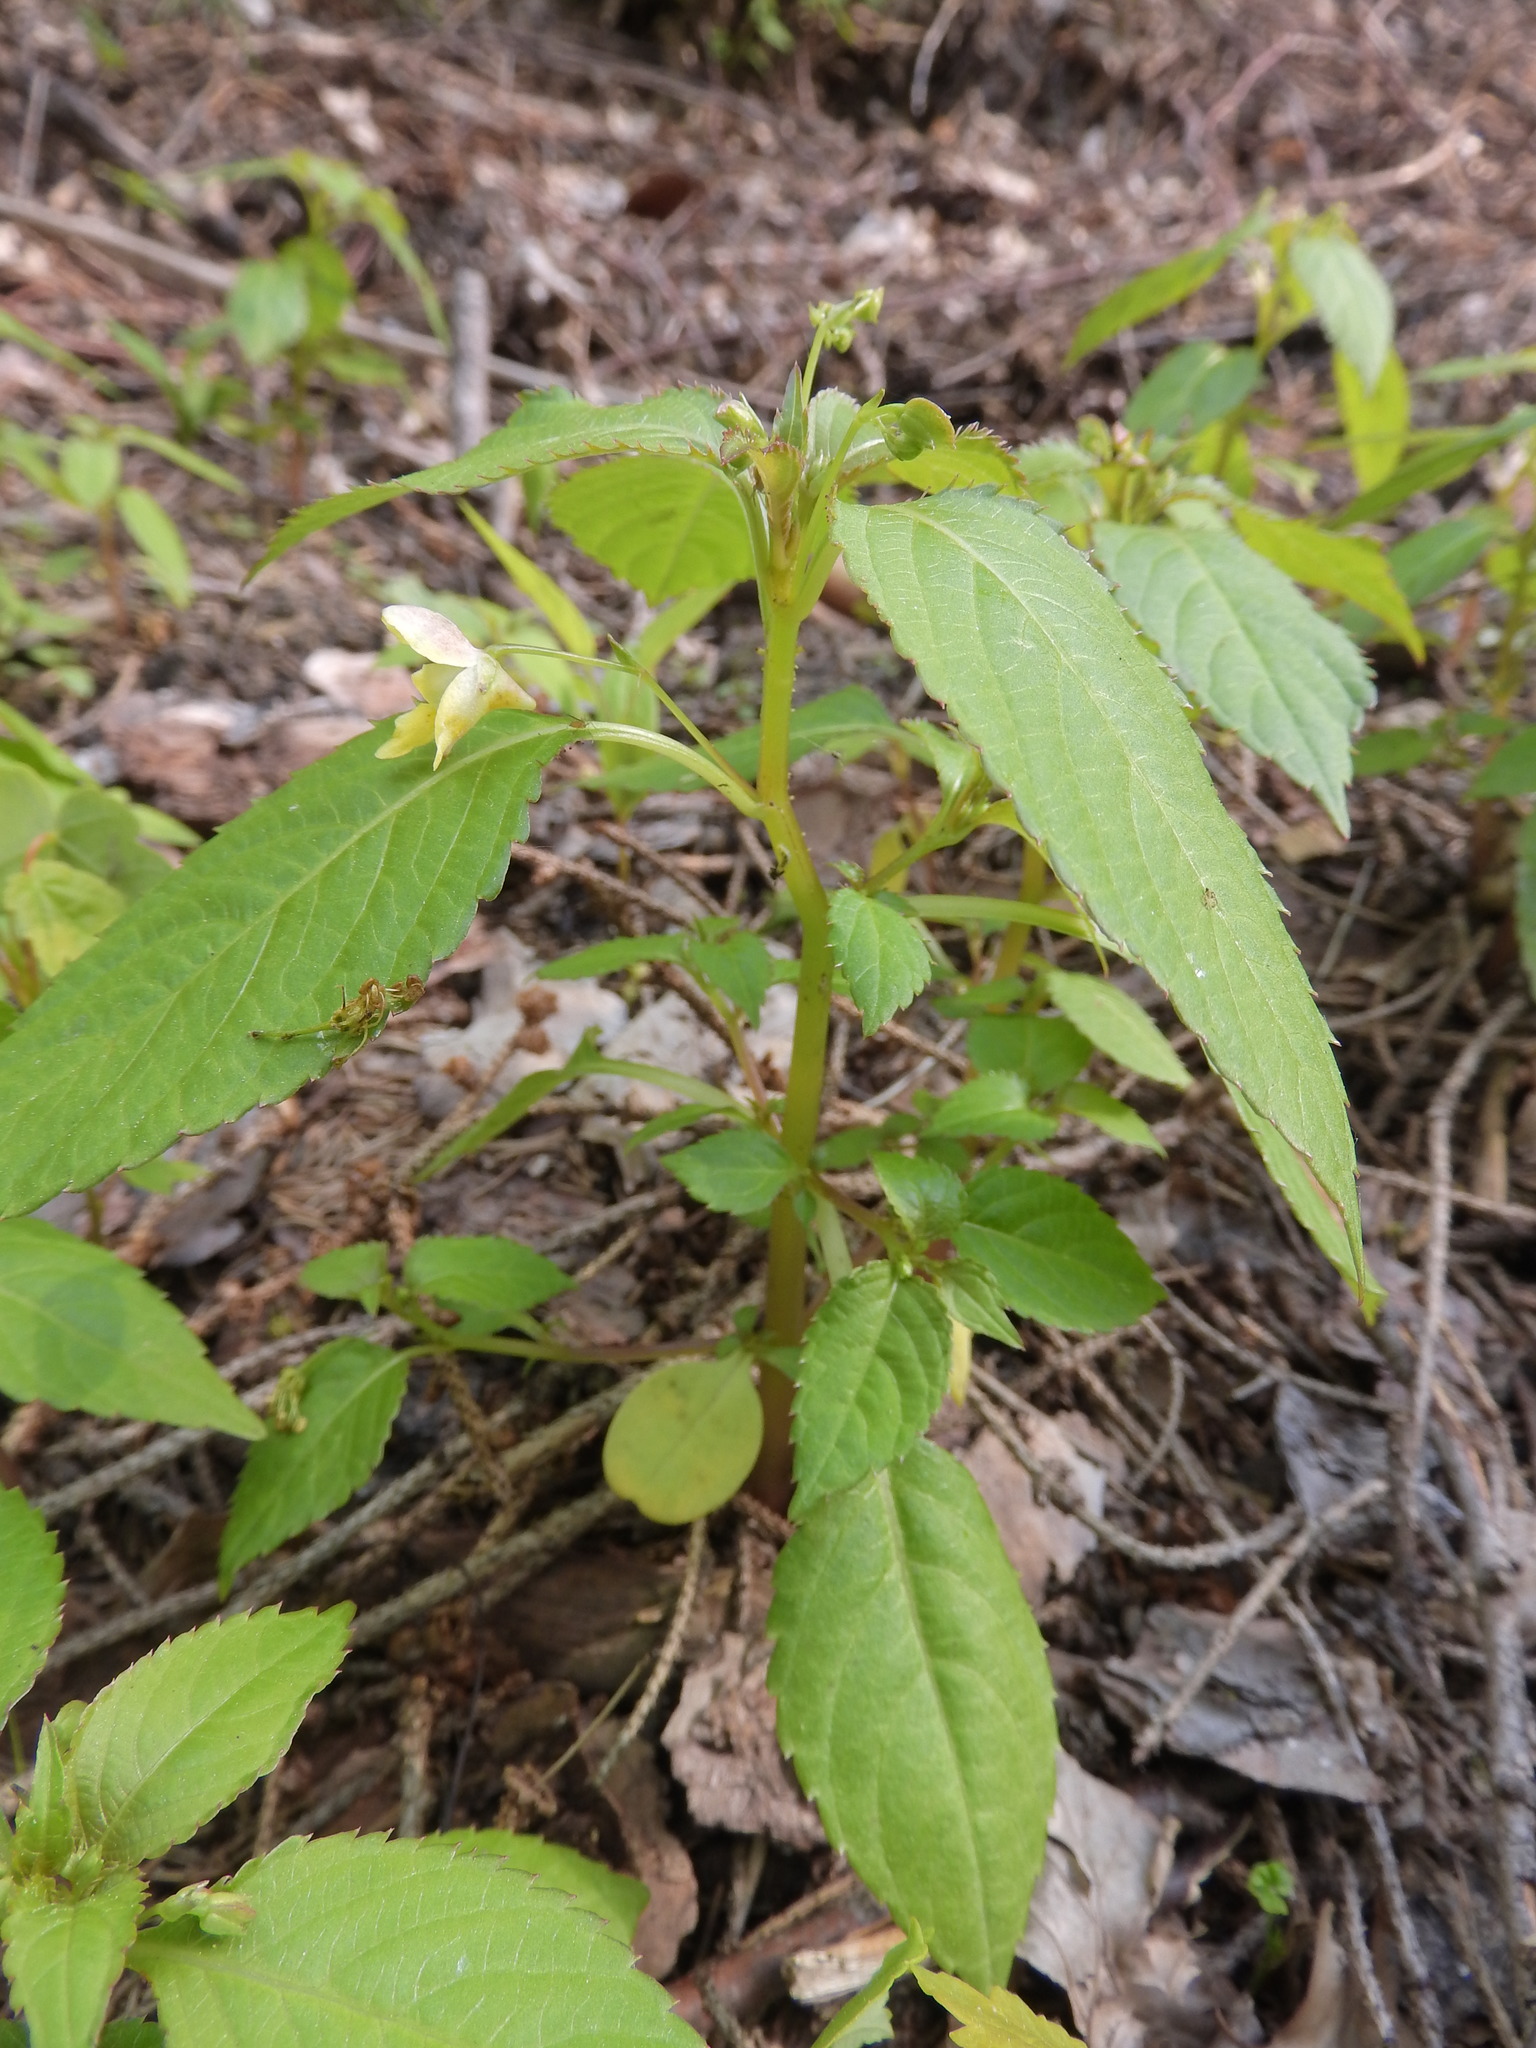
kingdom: Plantae
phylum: Tracheophyta
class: Magnoliopsida
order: Ericales
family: Balsaminaceae
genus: Impatiens
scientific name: Impatiens parviflora
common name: Small balsam
